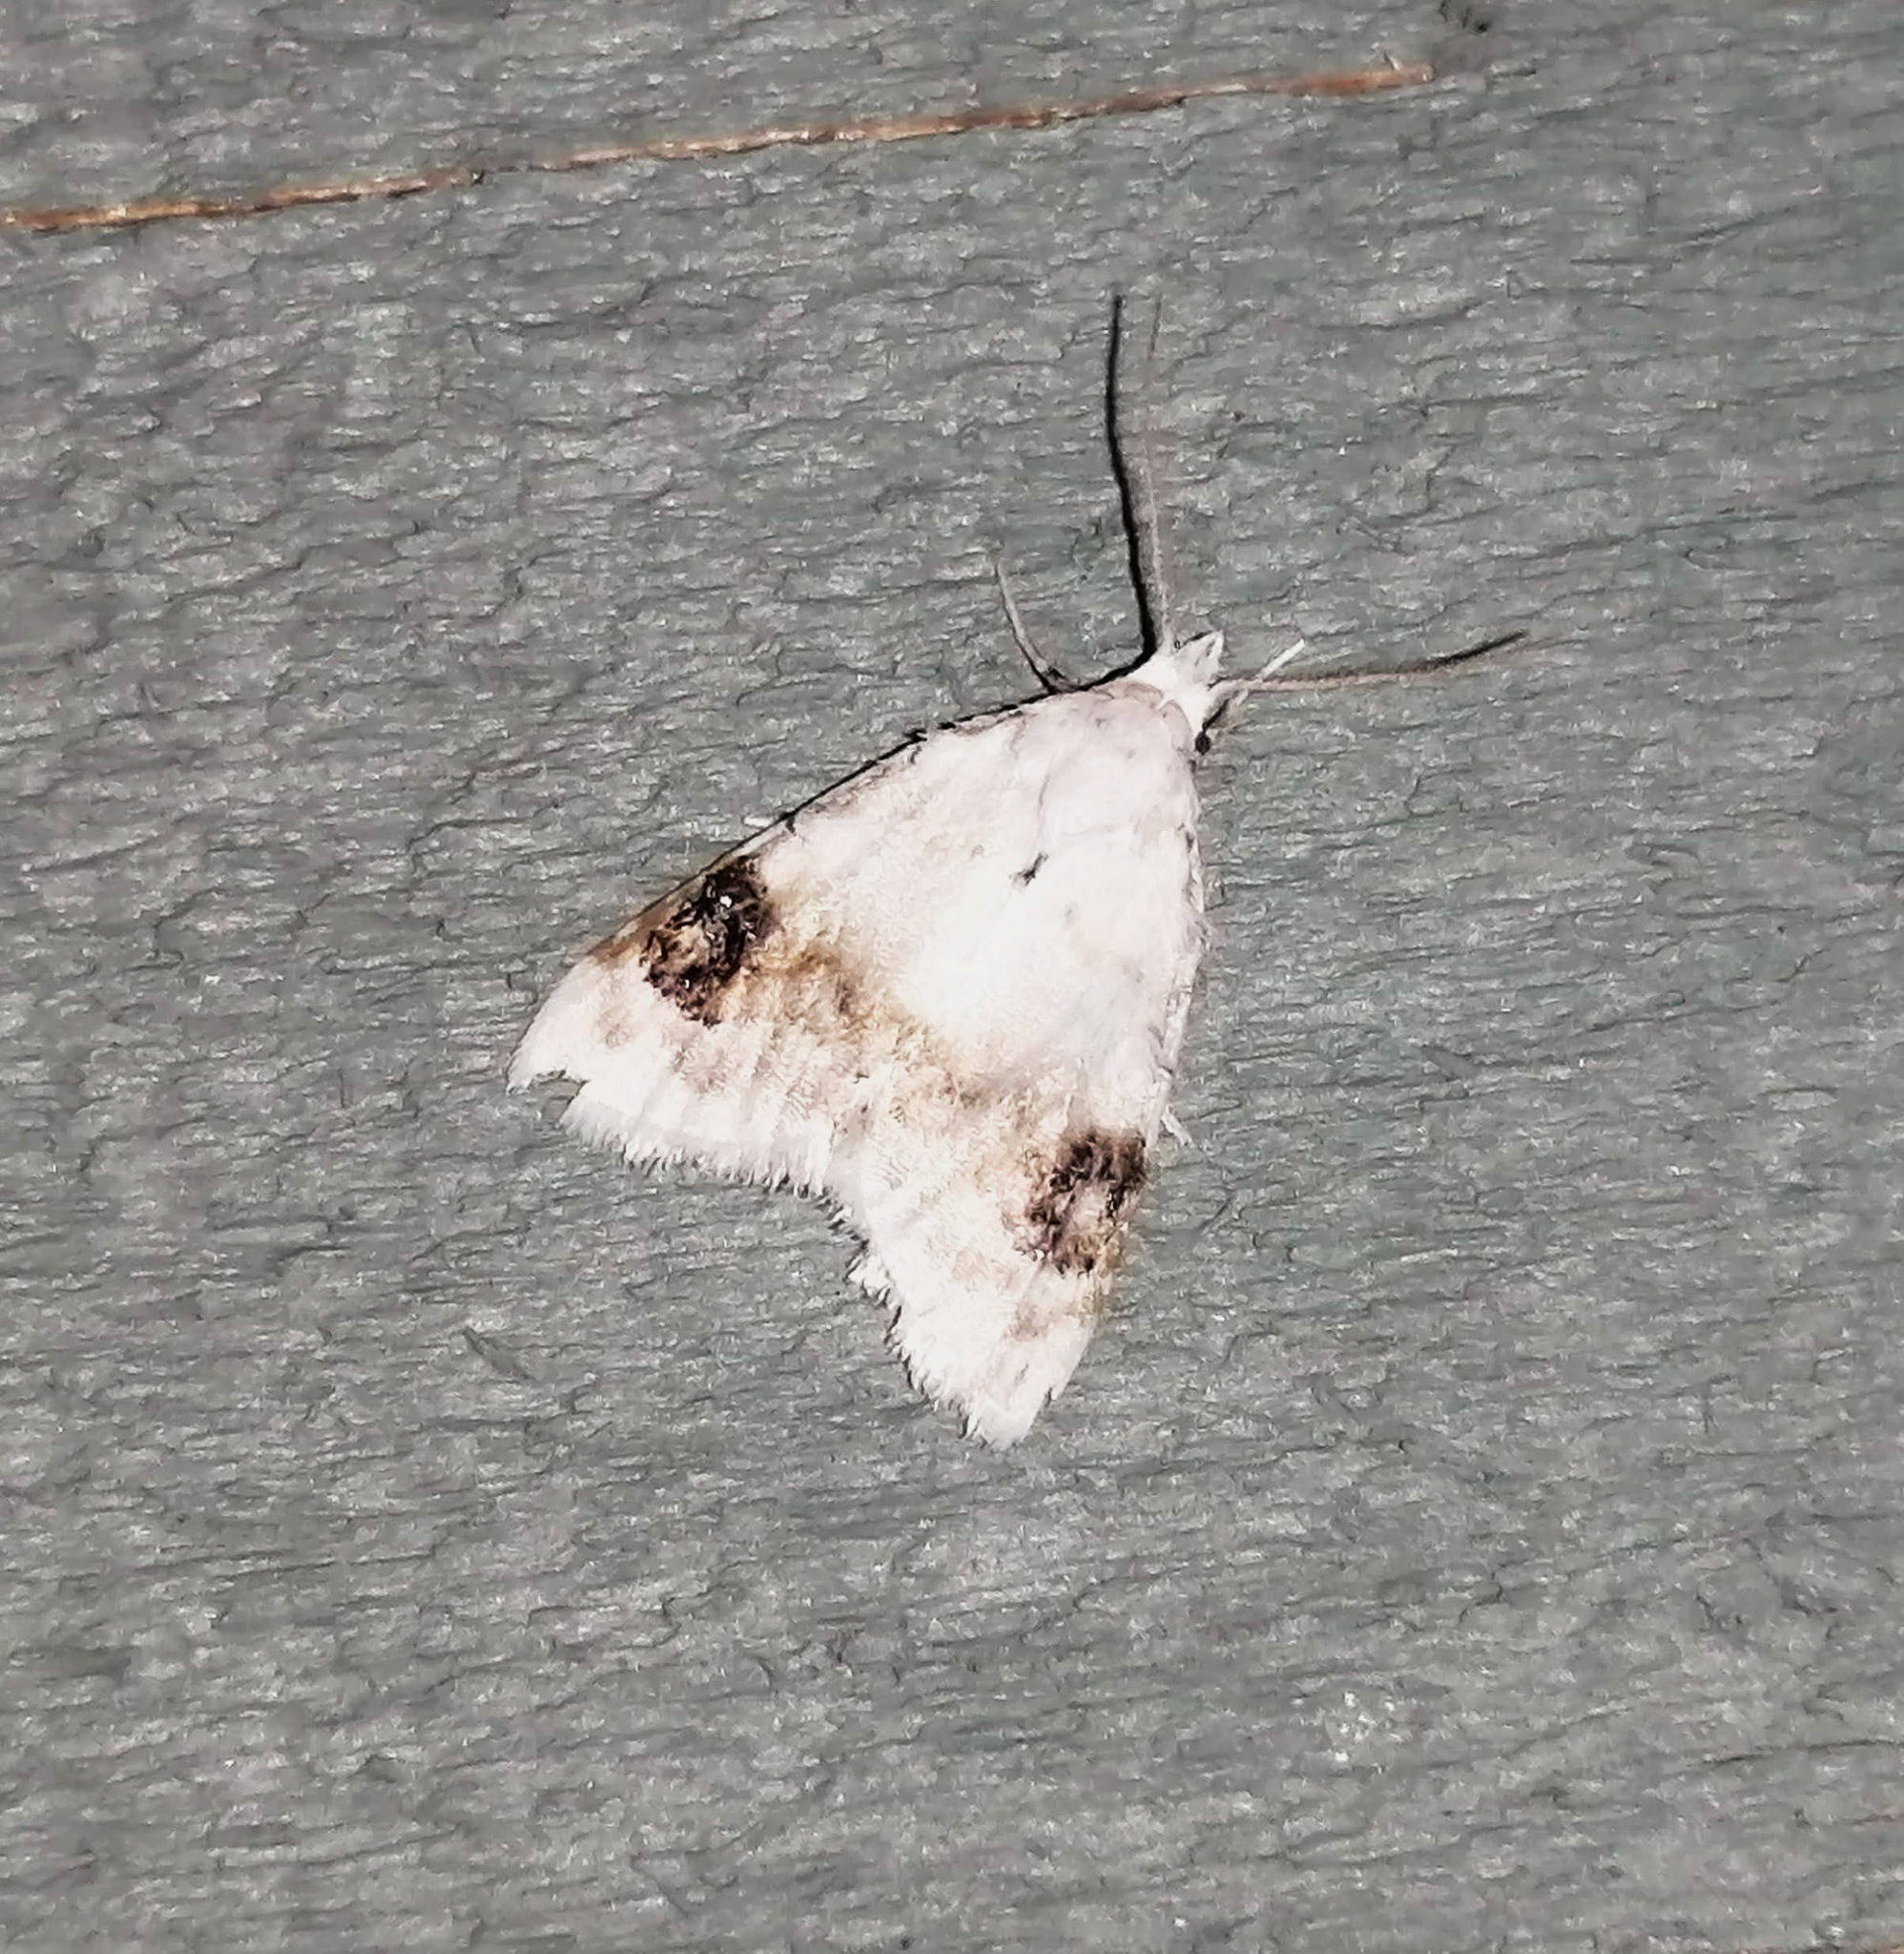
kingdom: Animalia
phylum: Arthropoda
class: Insecta
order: Lepidoptera
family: Nolidae
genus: Nola
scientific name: Nola cilicoides
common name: Blurry-patched nola moth
